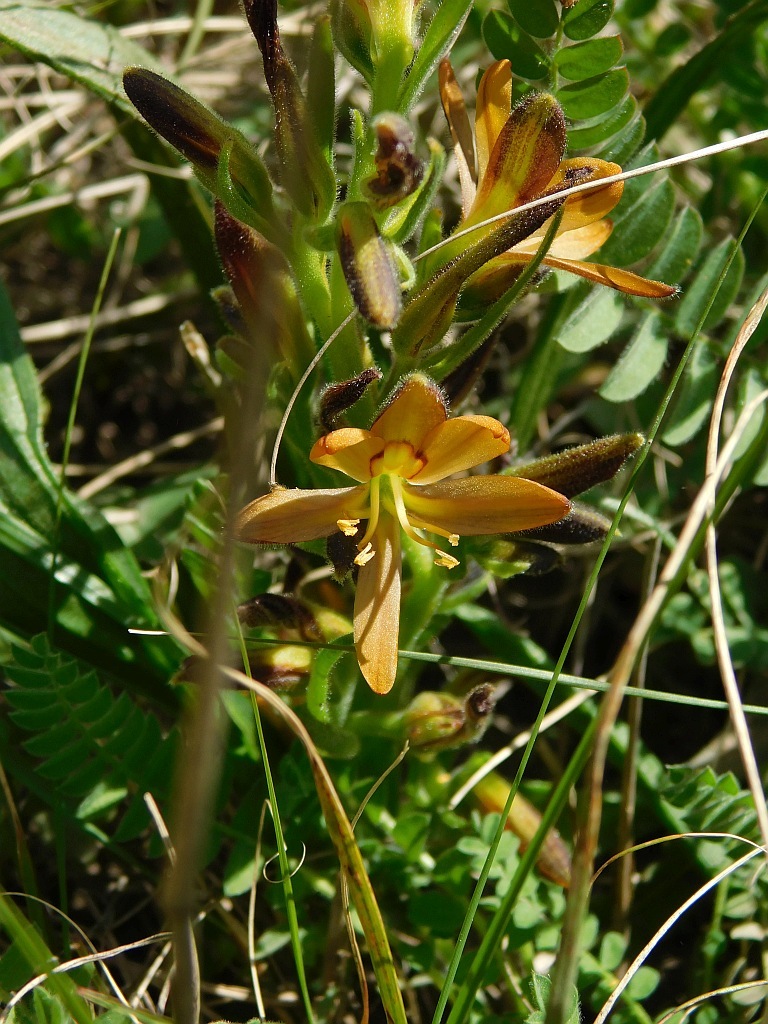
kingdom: Plantae
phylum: Tracheophyta
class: Liliopsida
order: Commelinales
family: Haemodoraceae
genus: Wachendorfia
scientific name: Wachendorfia multiflora
